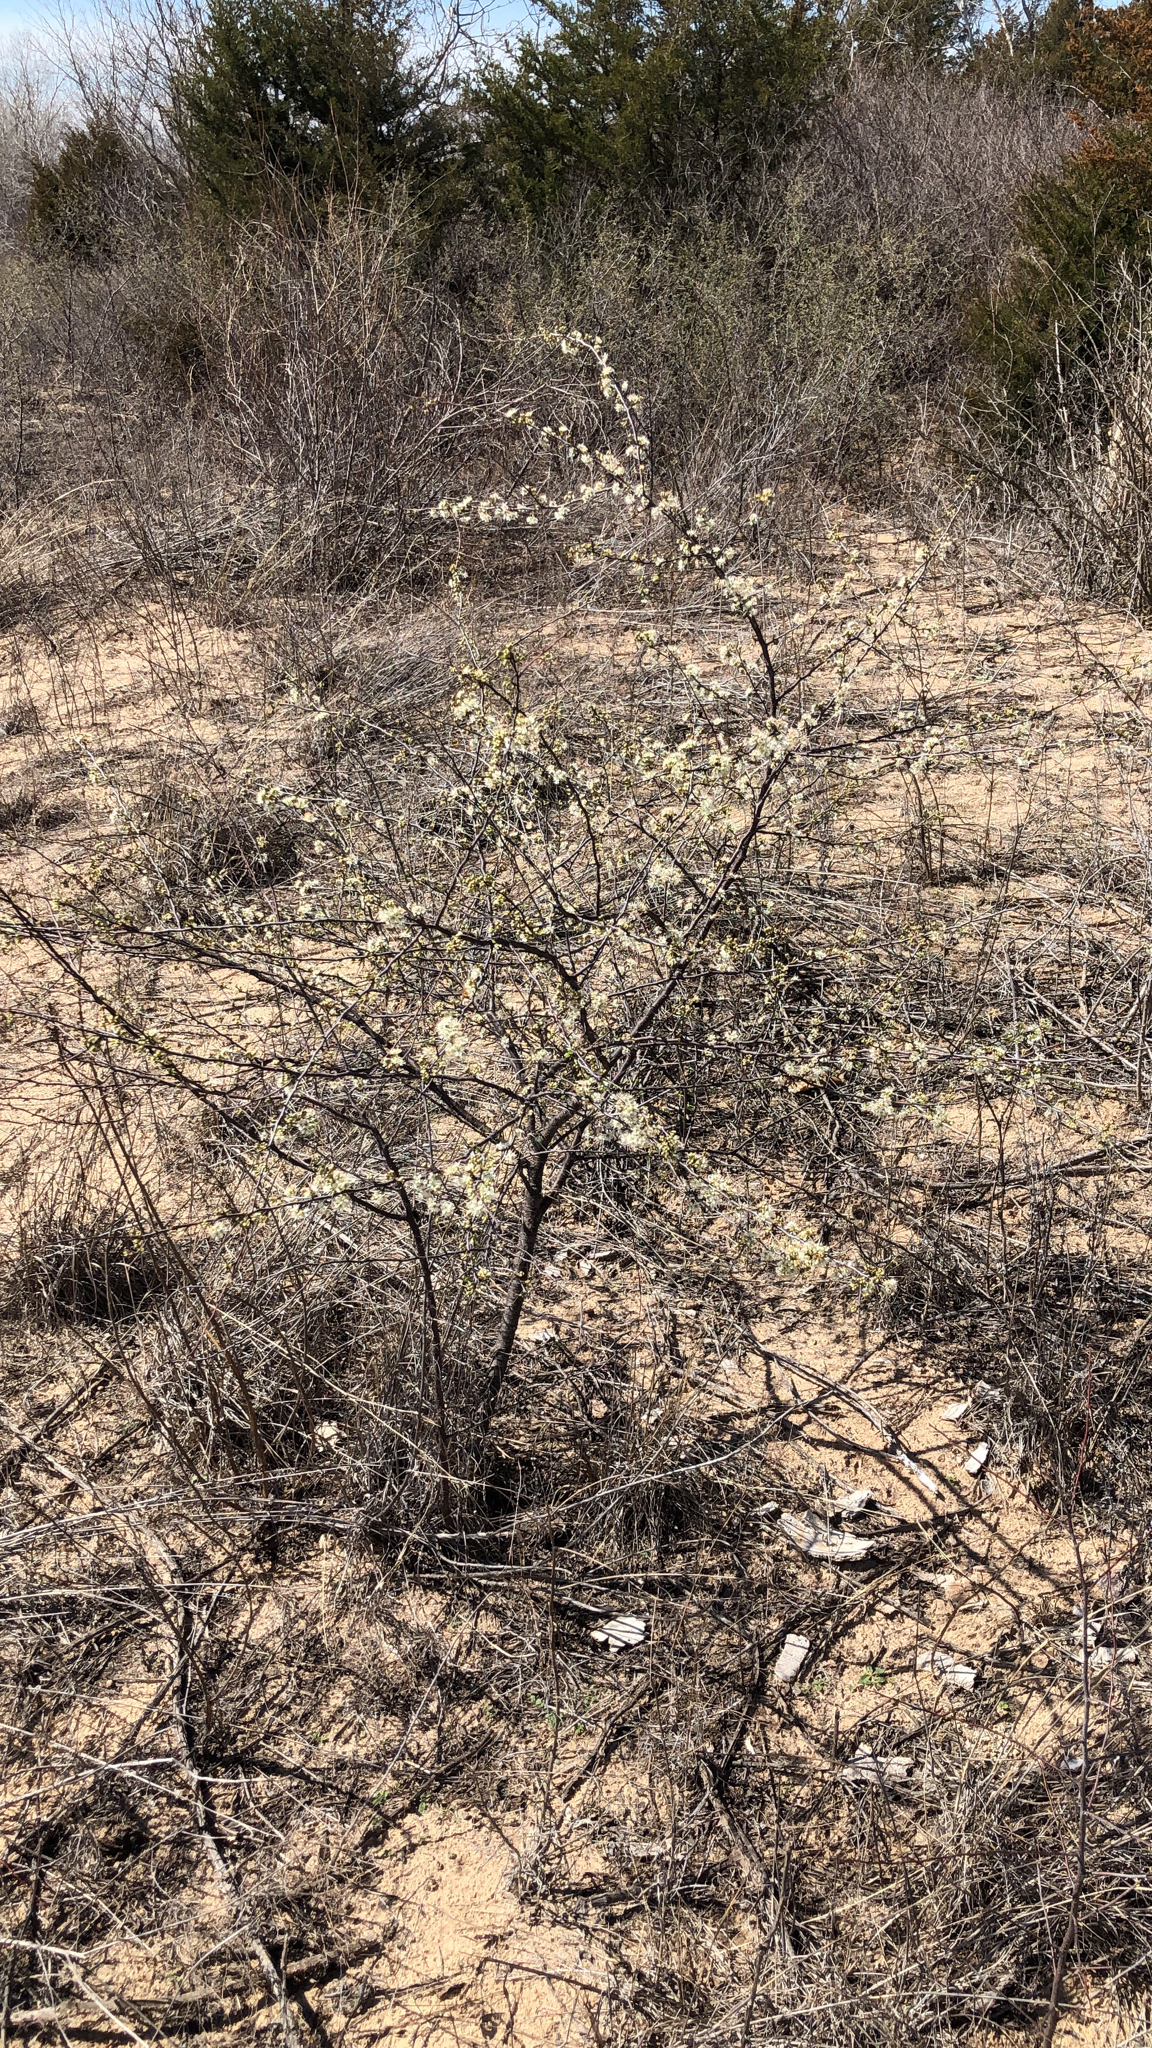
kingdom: Plantae
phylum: Tracheophyta
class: Magnoliopsida
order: Rosales
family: Rosaceae
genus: Prunus
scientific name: Prunus angustifolia
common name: Cherokee plum
